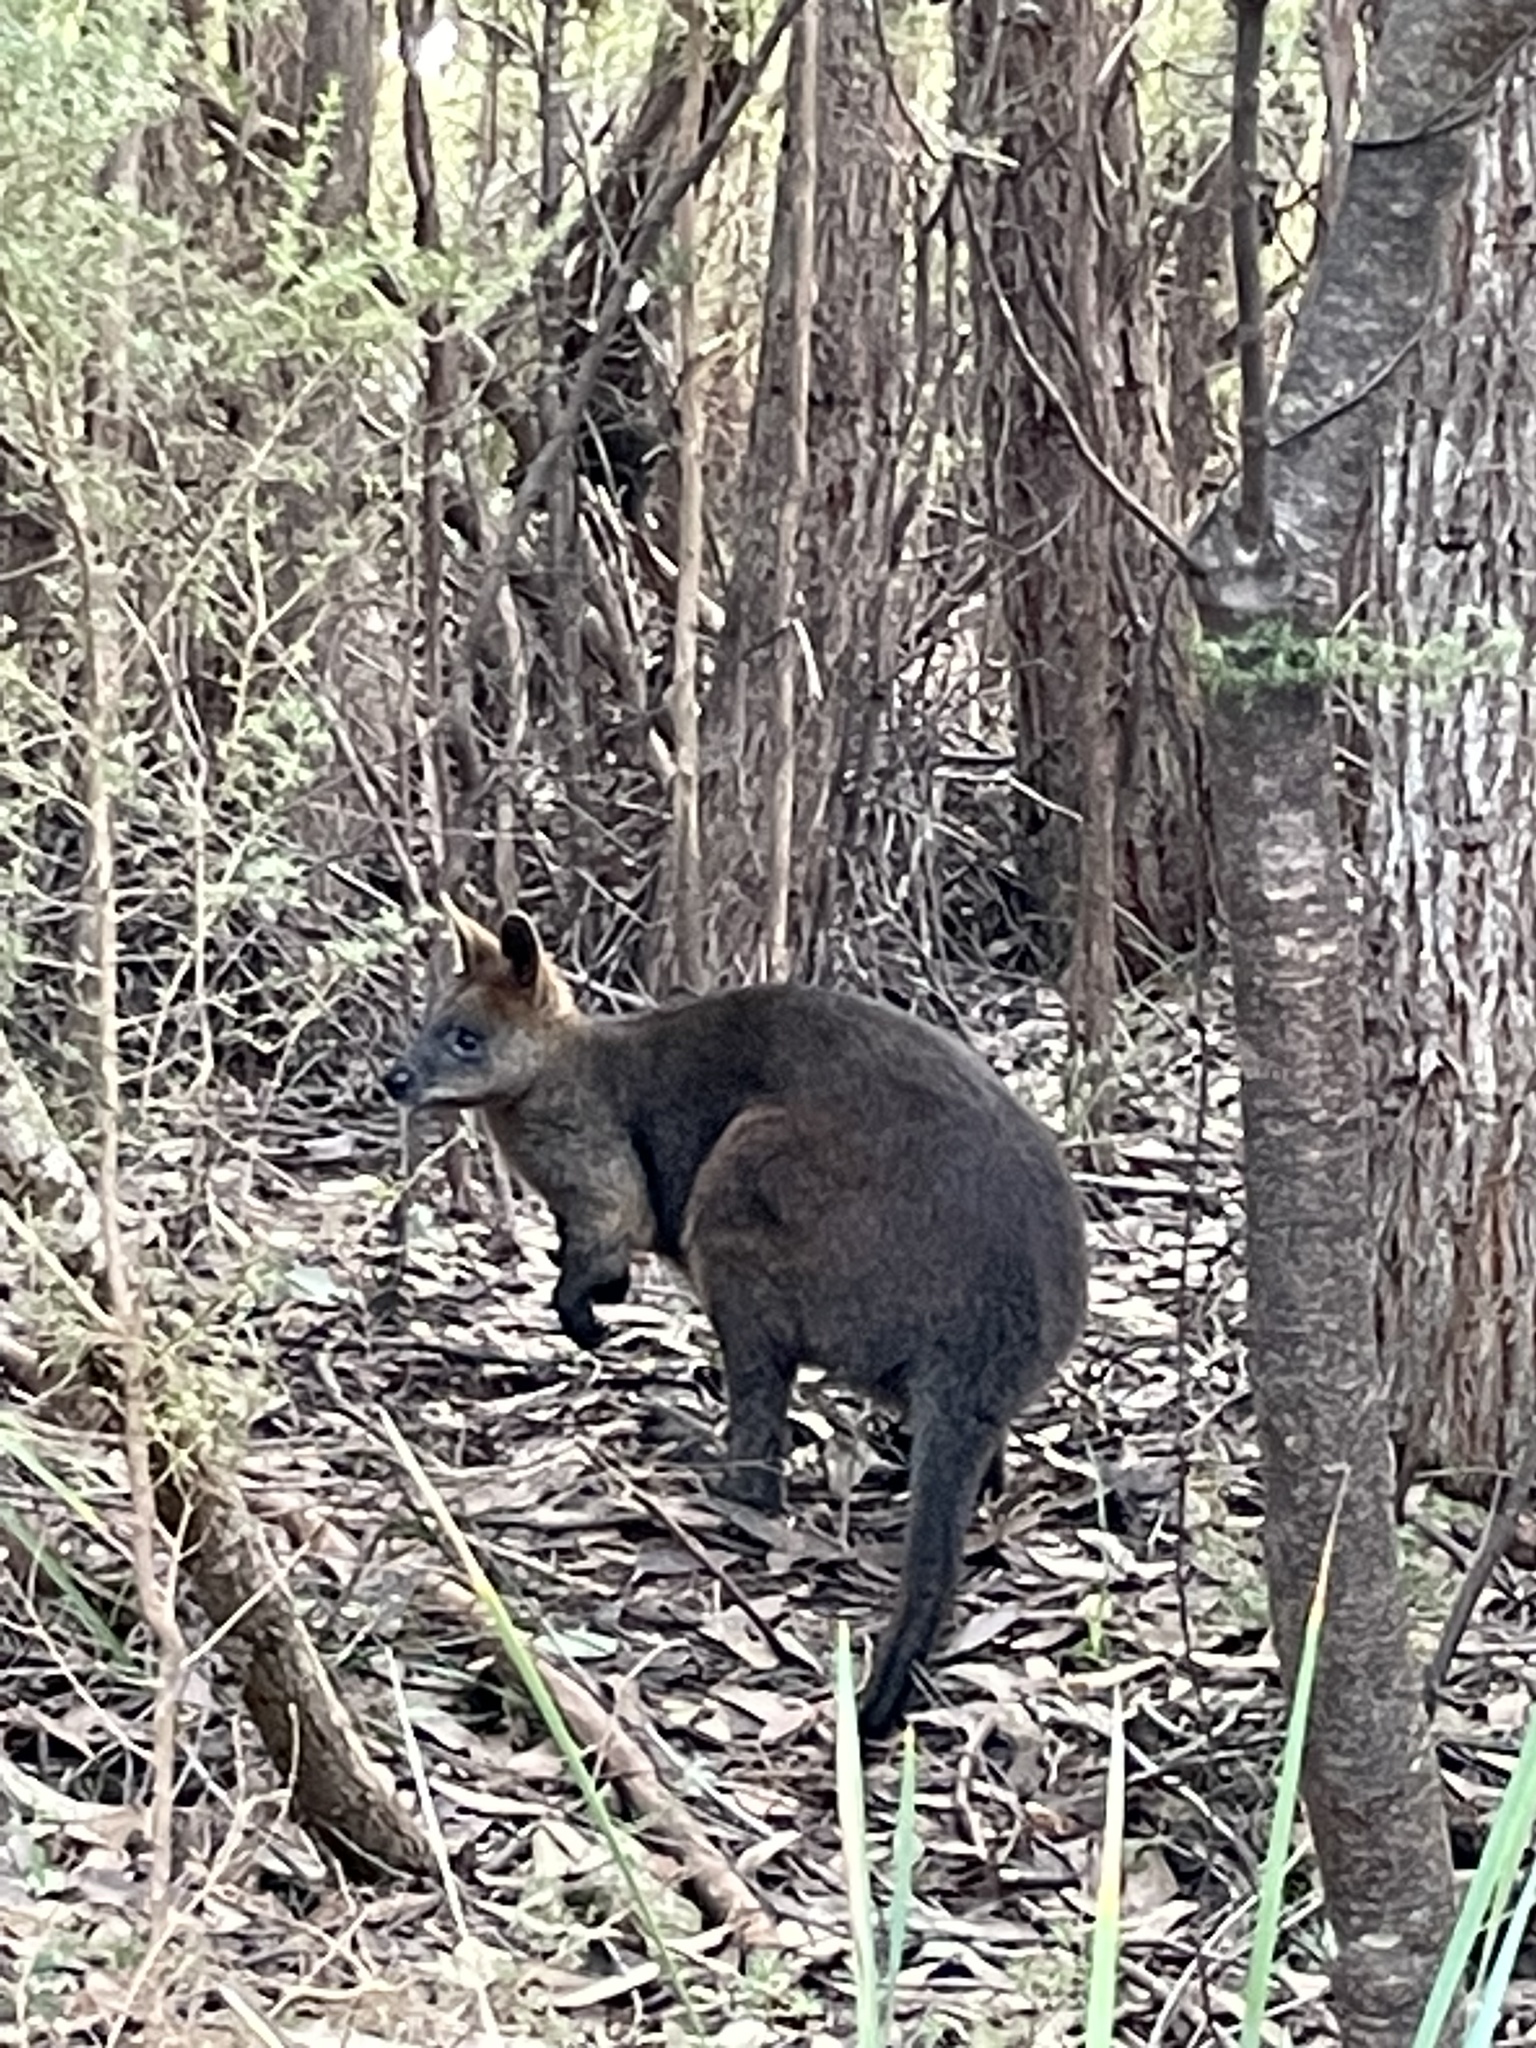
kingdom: Animalia
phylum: Chordata
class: Mammalia
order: Diprotodontia
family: Macropodidae
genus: Wallabia
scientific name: Wallabia bicolor
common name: Swamp wallaby
